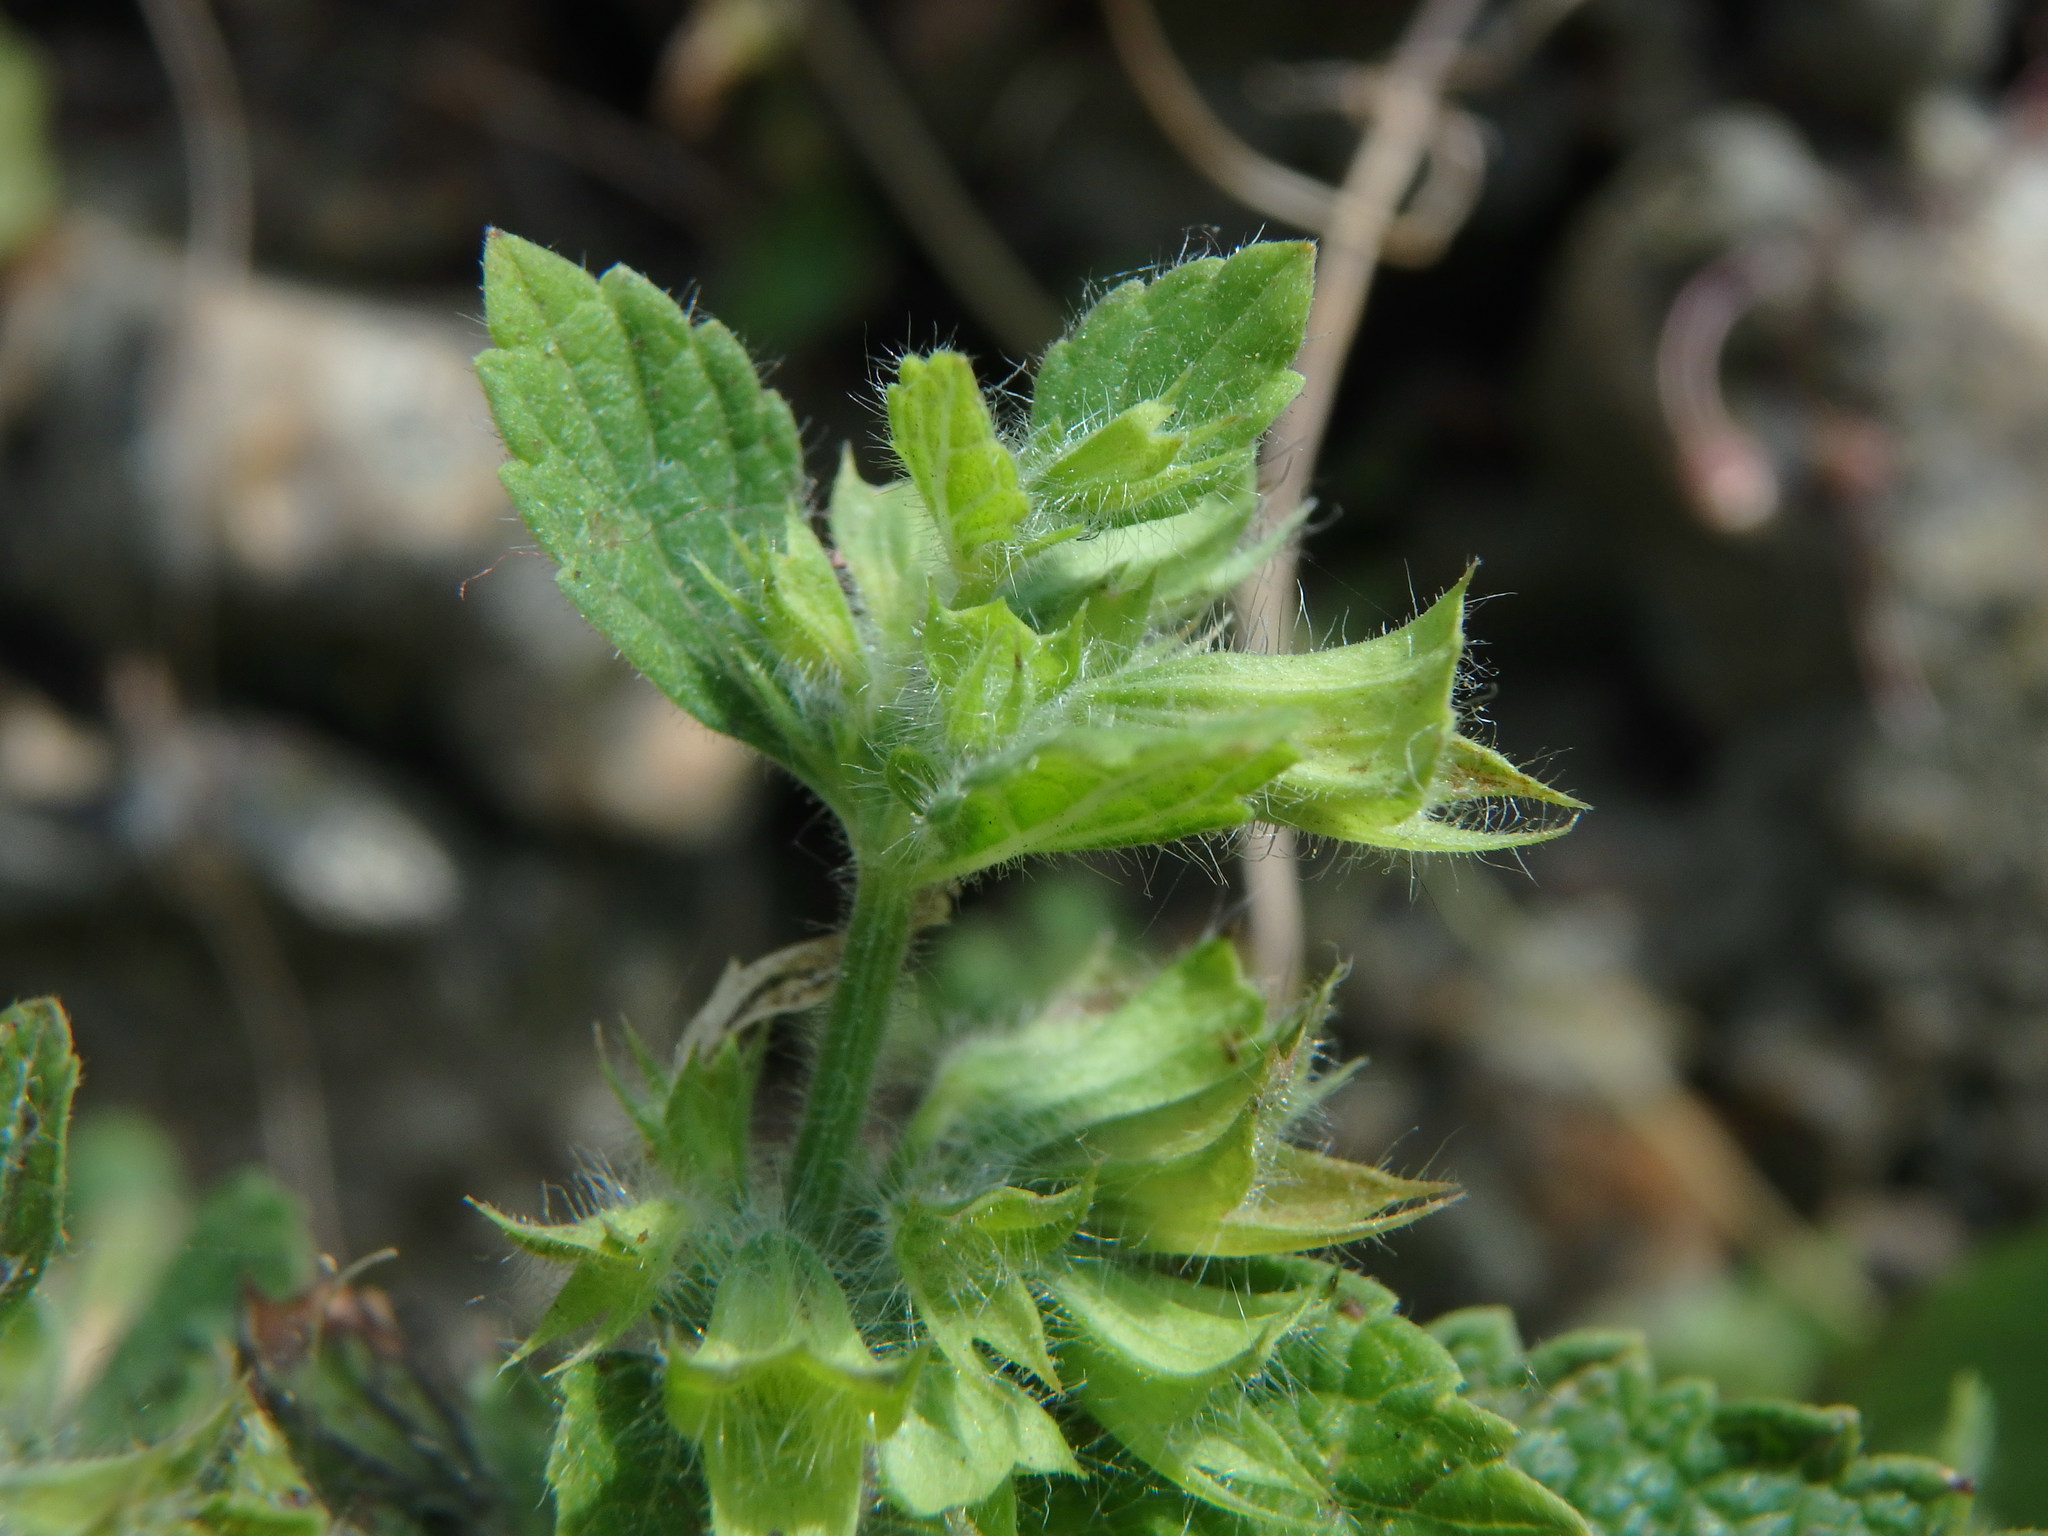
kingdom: Plantae
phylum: Tracheophyta
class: Magnoliopsida
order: Lamiales
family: Lamiaceae
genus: Melissa
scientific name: Melissa officinalis
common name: Balm
